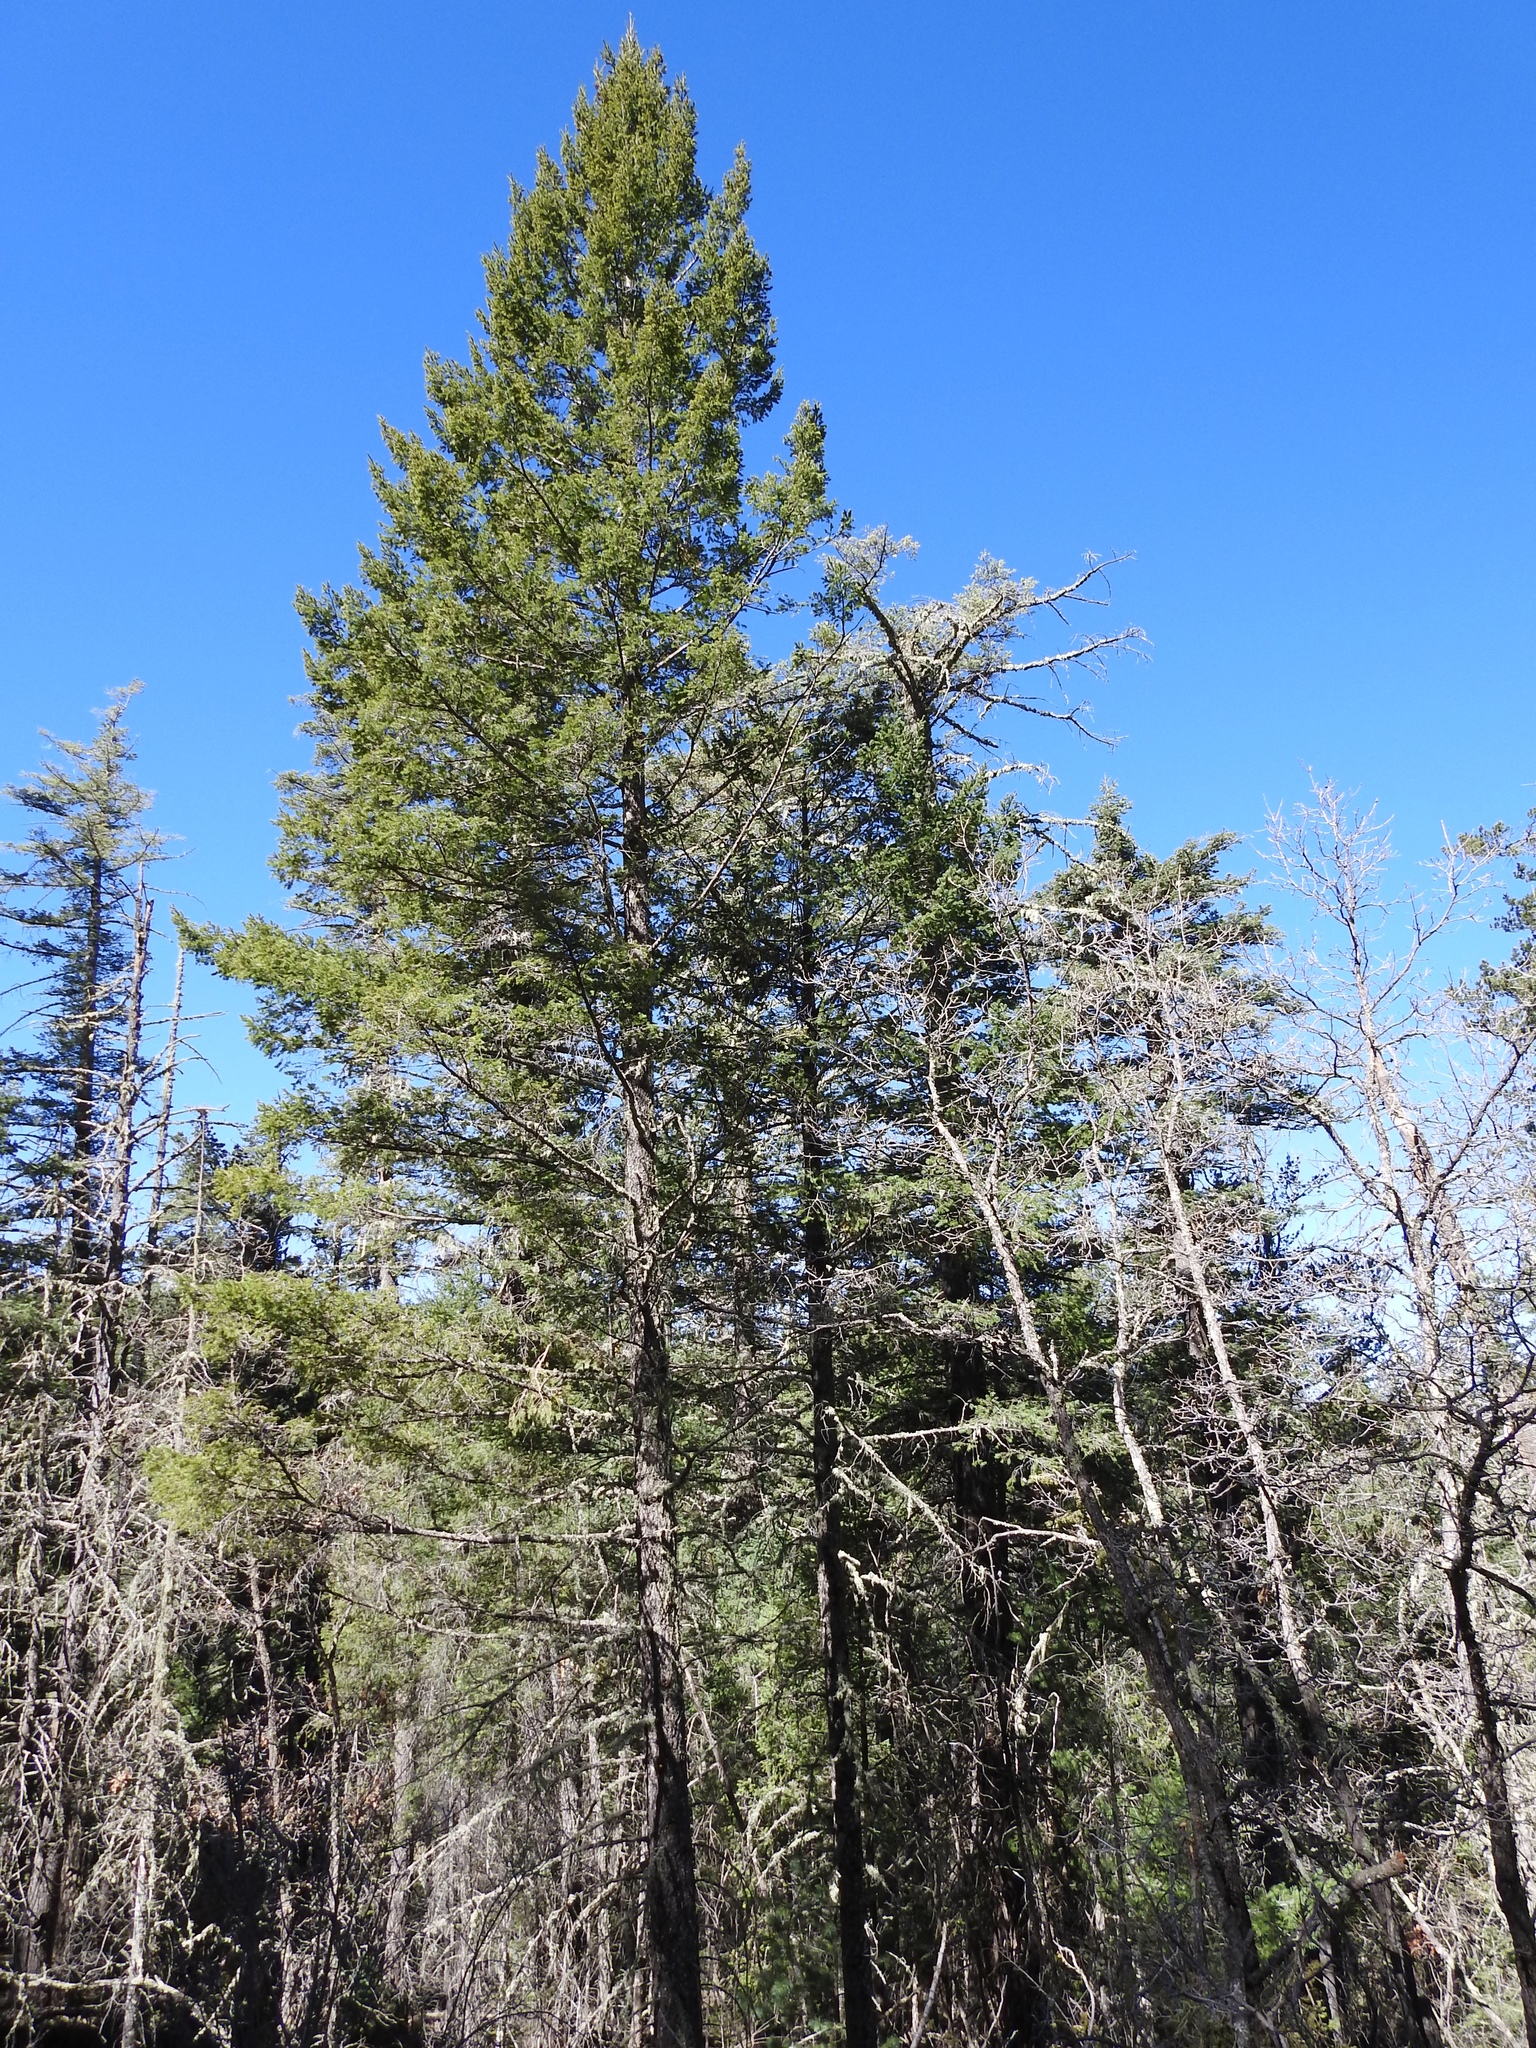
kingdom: Plantae
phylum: Tracheophyta
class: Pinopsida
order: Pinales
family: Pinaceae
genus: Pseudotsuga
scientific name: Pseudotsuga menziesii
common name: Douglas fir
